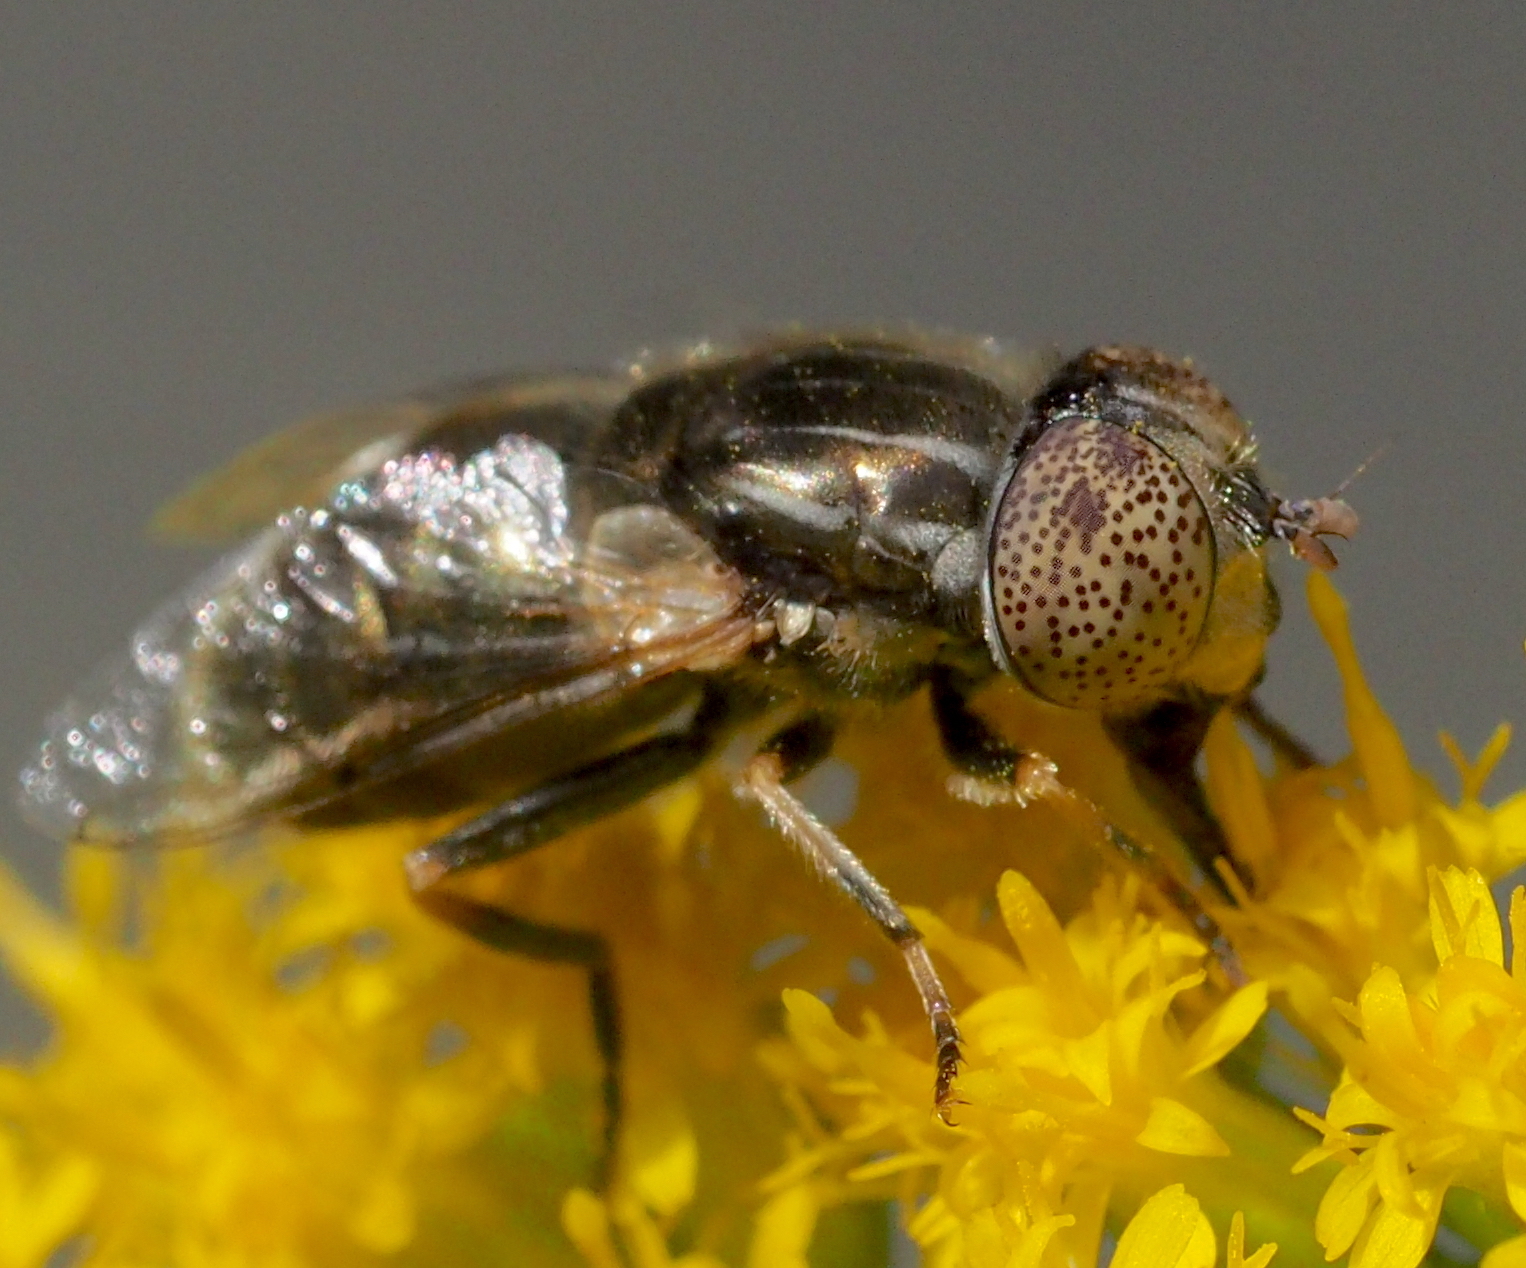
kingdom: Animalia
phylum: Arthropoda
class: Insecta
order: Diptera
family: Syrphidae
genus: Eristalinus
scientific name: Eristalinus aeneus
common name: Syrphid fly
